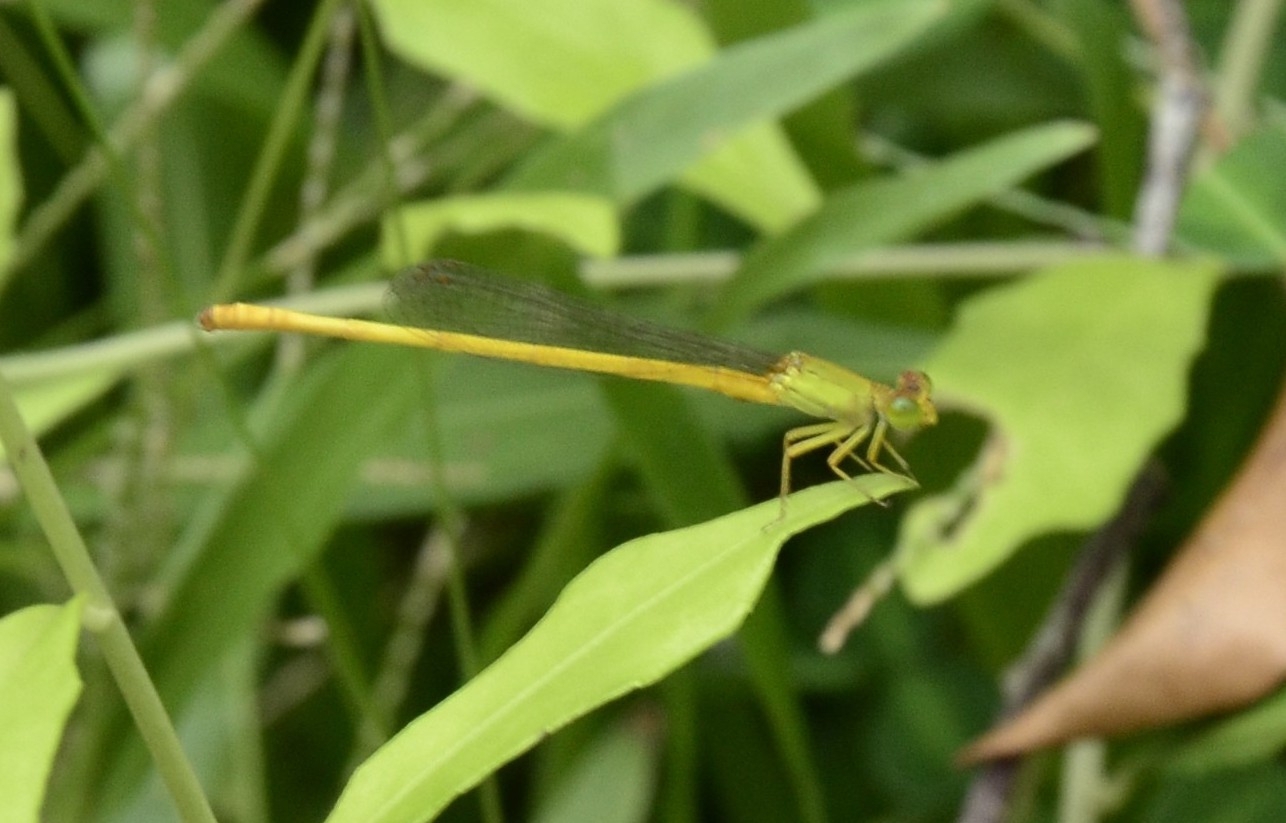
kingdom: Animalia
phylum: Arthropoda
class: Insecta
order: Odonata
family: Coenagrionidae
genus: Ceriagrion
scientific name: Ceriagrion coromandelianum
